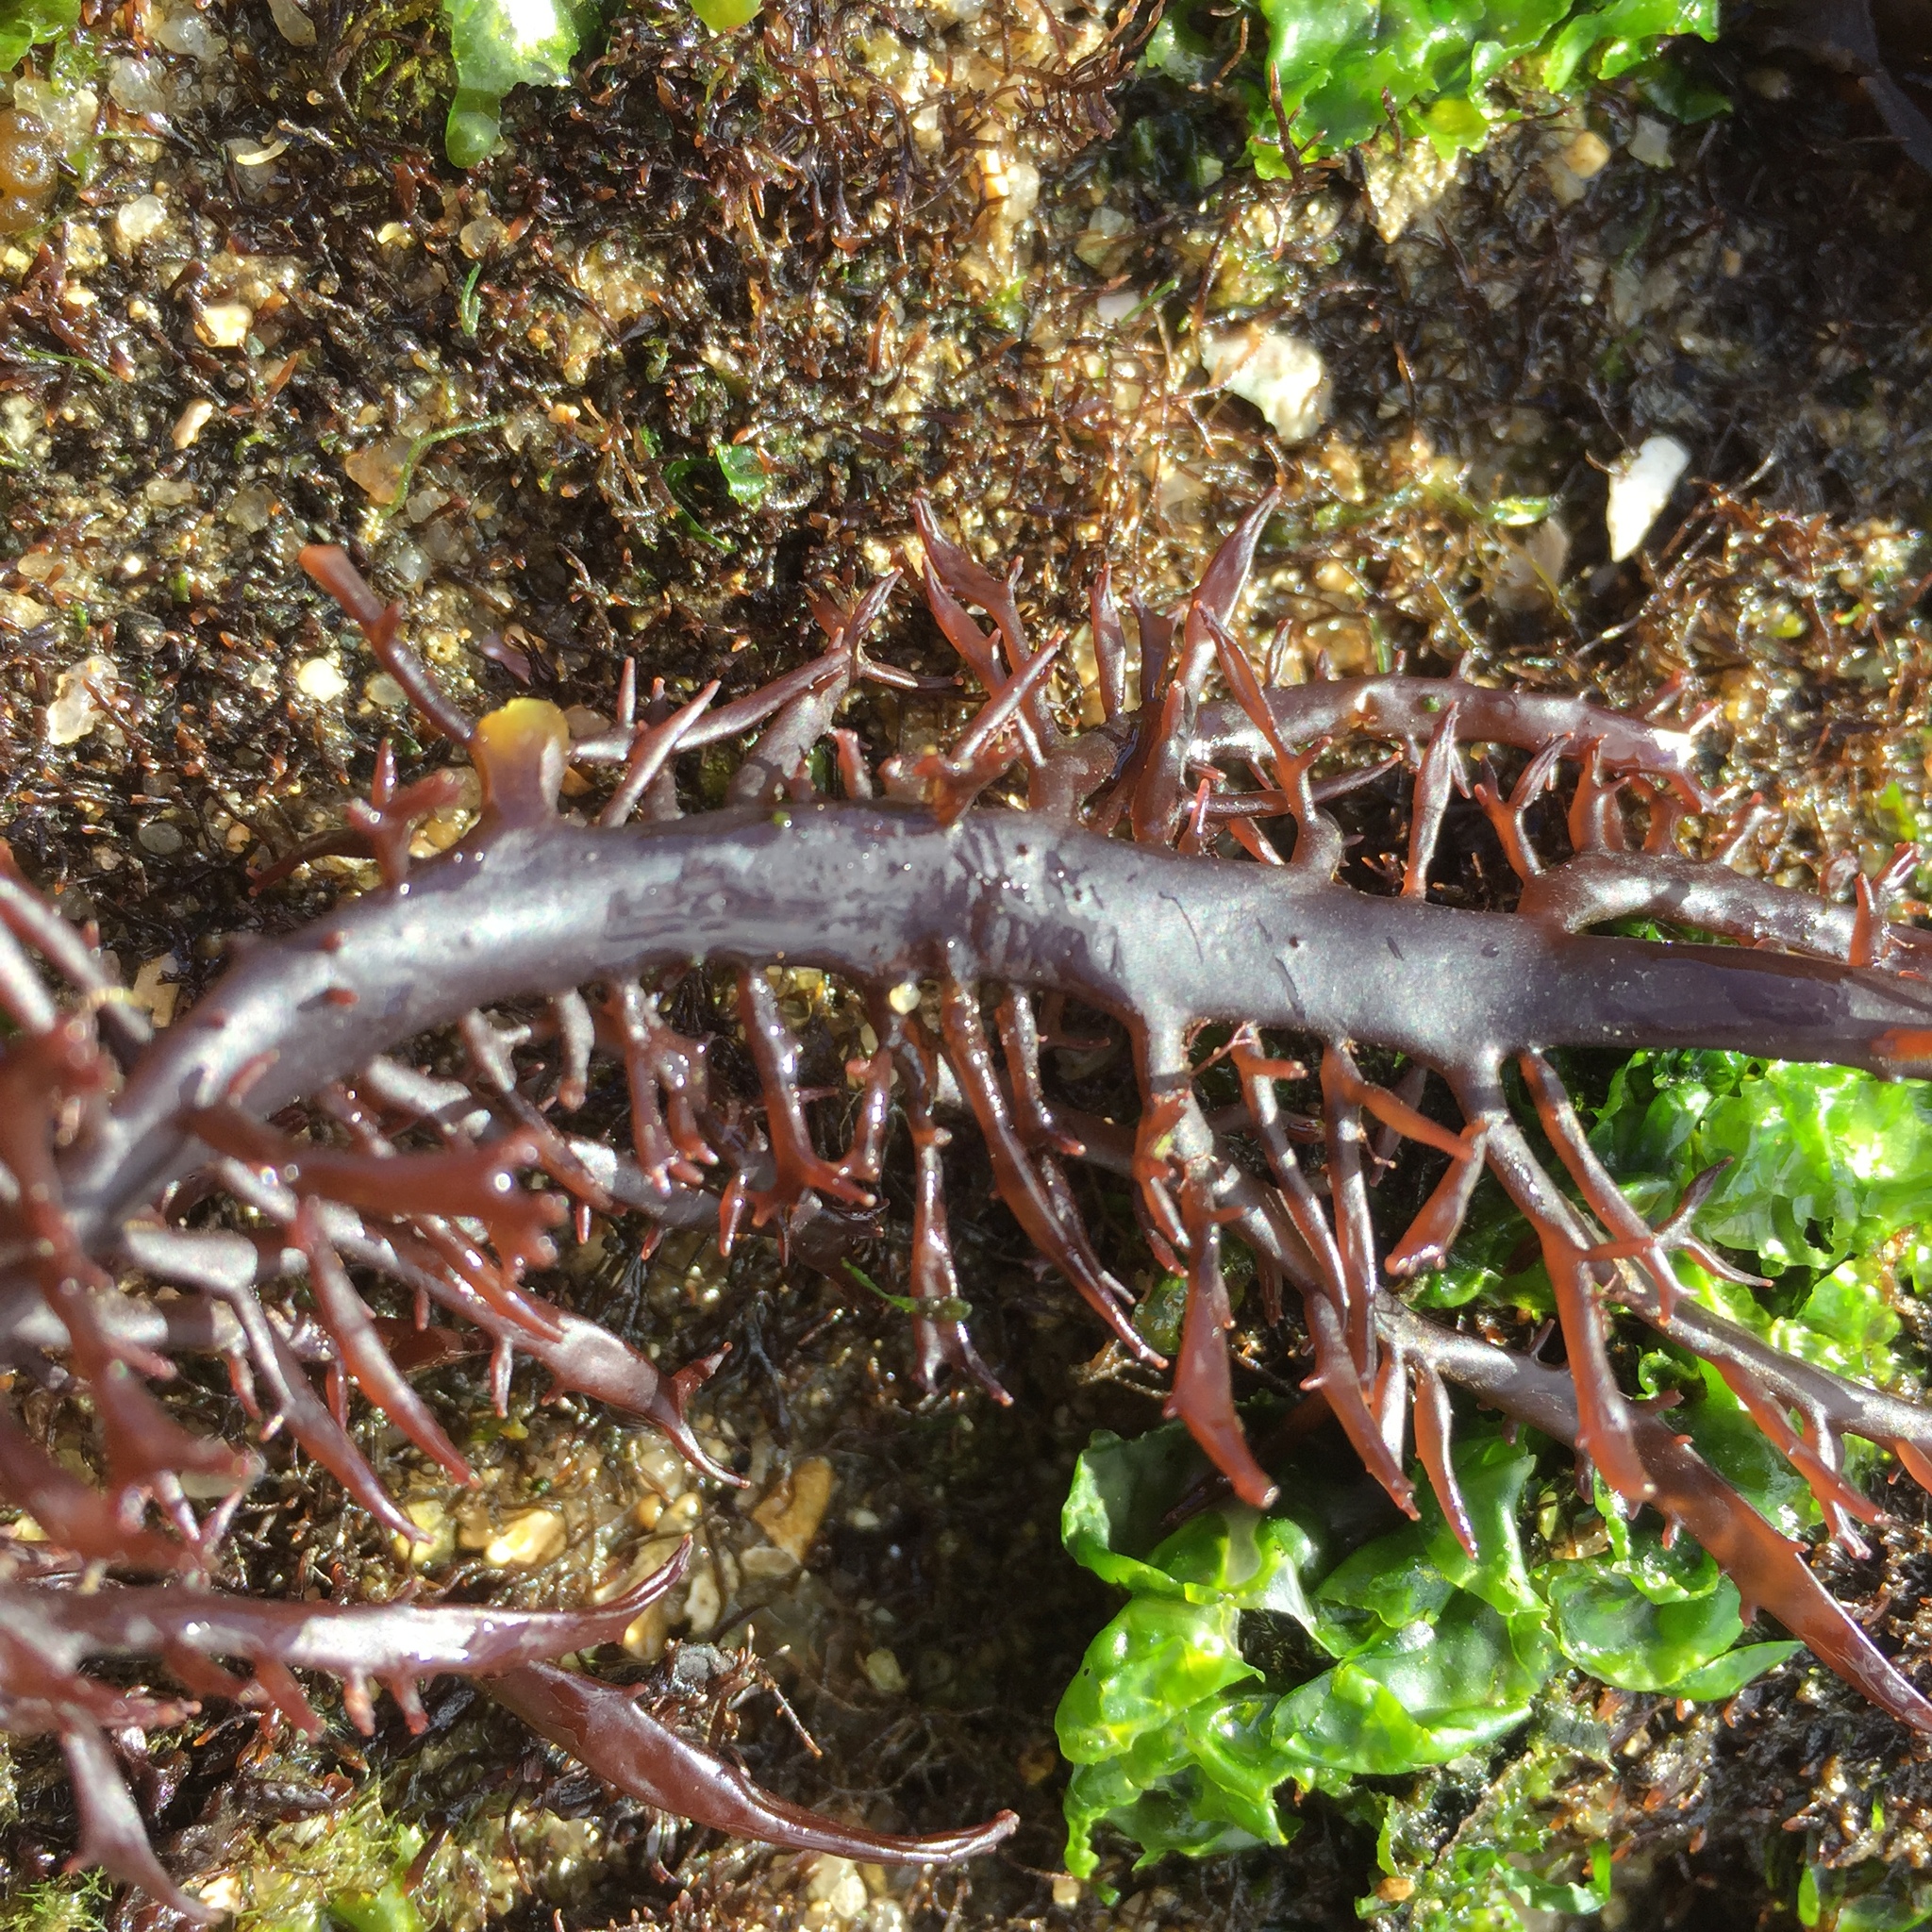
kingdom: Plantae
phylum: Rhodophyta
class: Florideophyceae
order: Gigartinales
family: Gigartinaceae
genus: Chondracanthus
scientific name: Chondracanthus chamissoi
